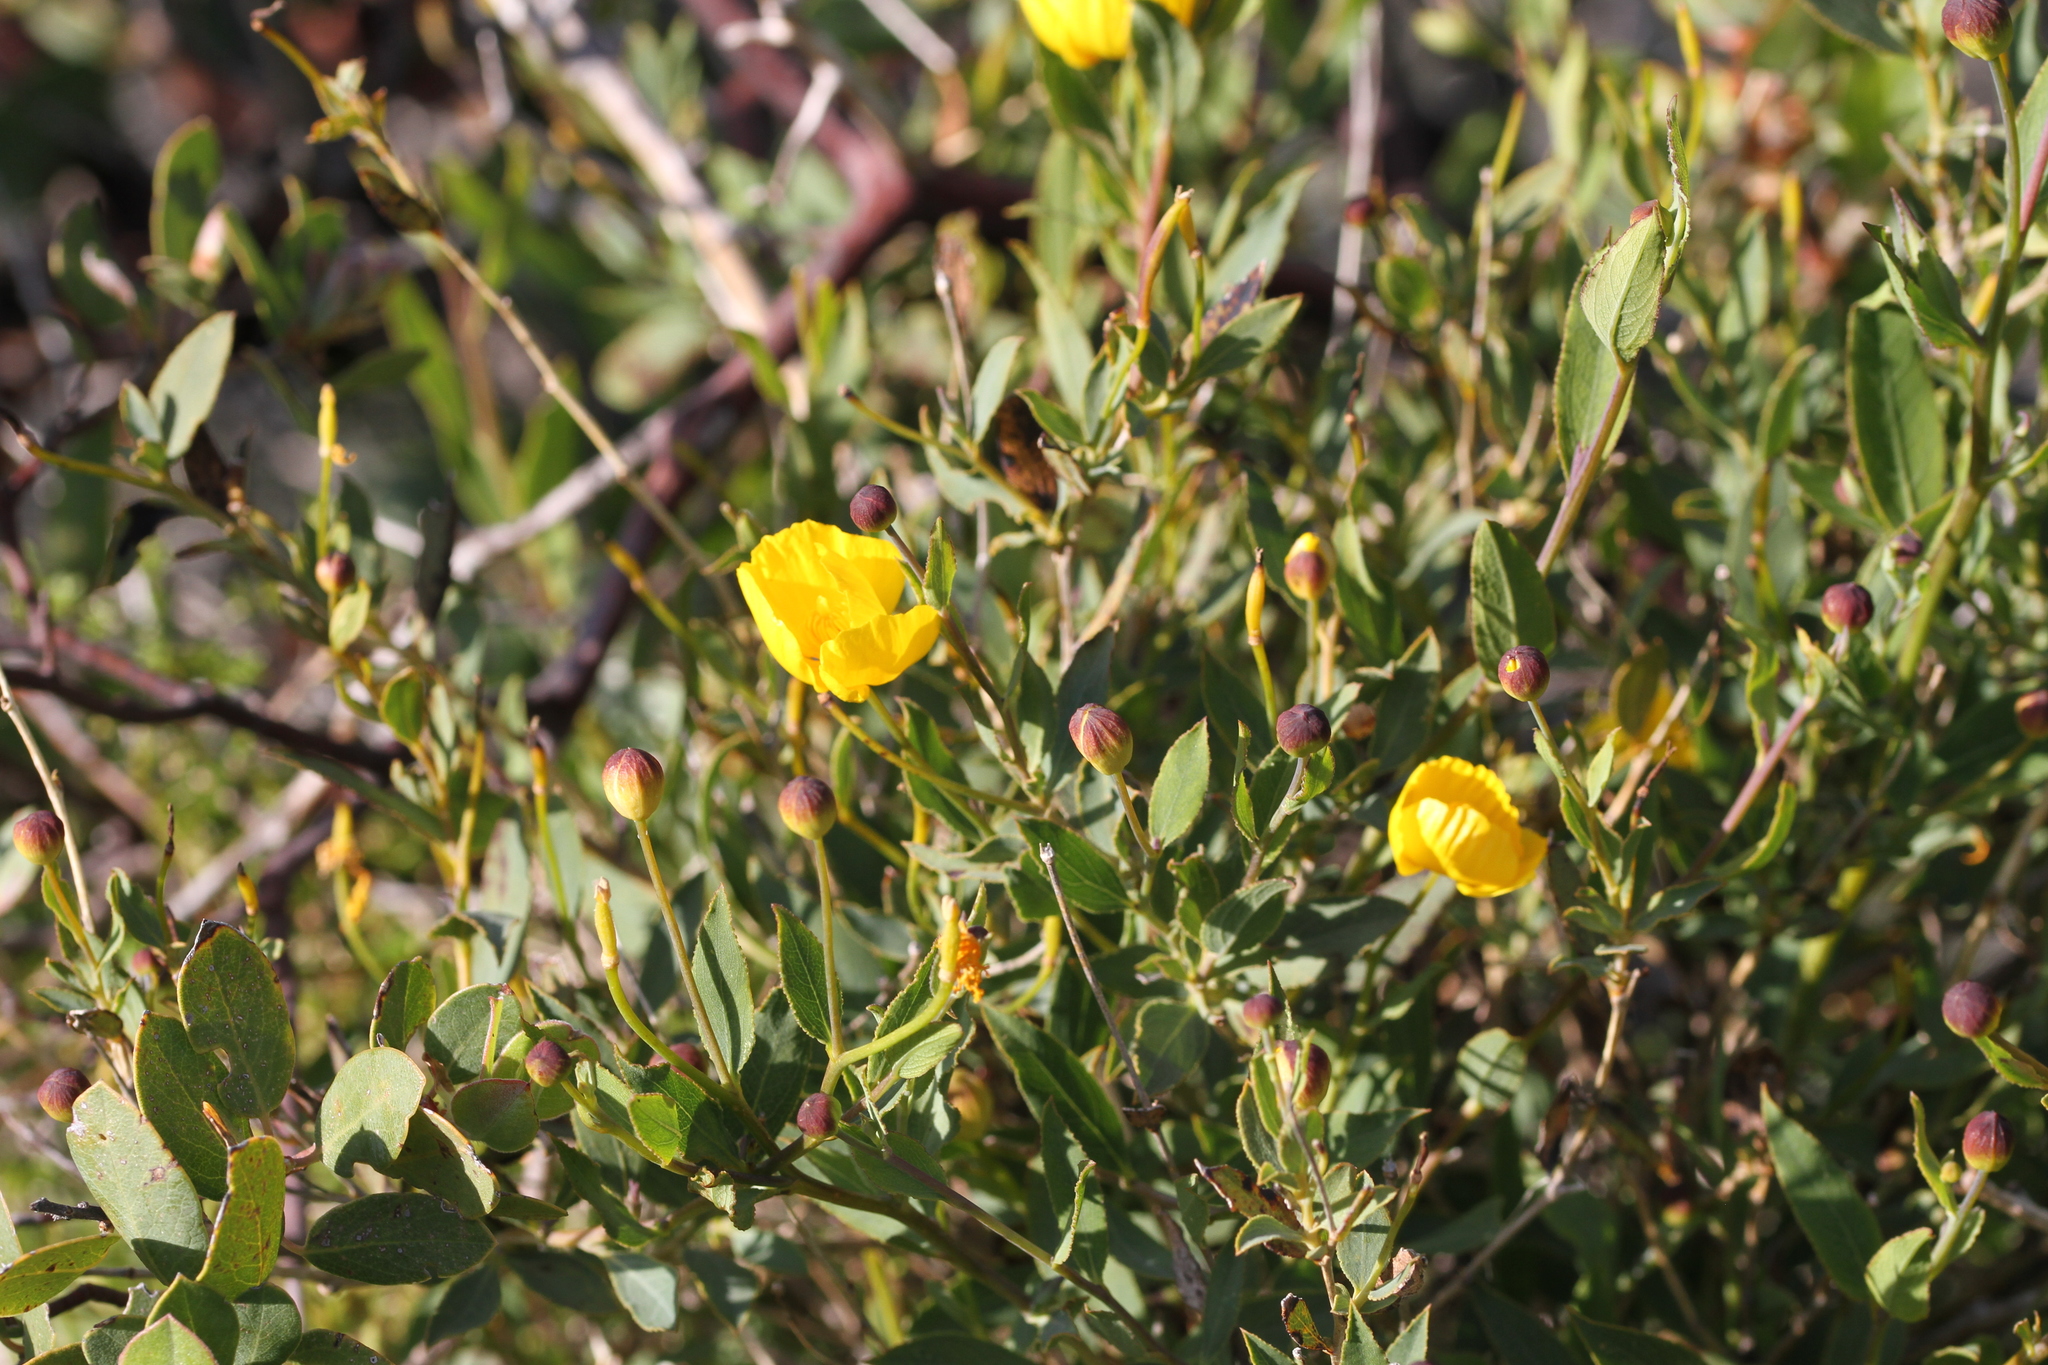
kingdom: Plantae
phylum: Tracheophyta
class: Magnoliopsida
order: Ranunculales
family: Papaveraceae
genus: Dendromecon
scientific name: Dendromecon rigida
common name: Tree poppy
